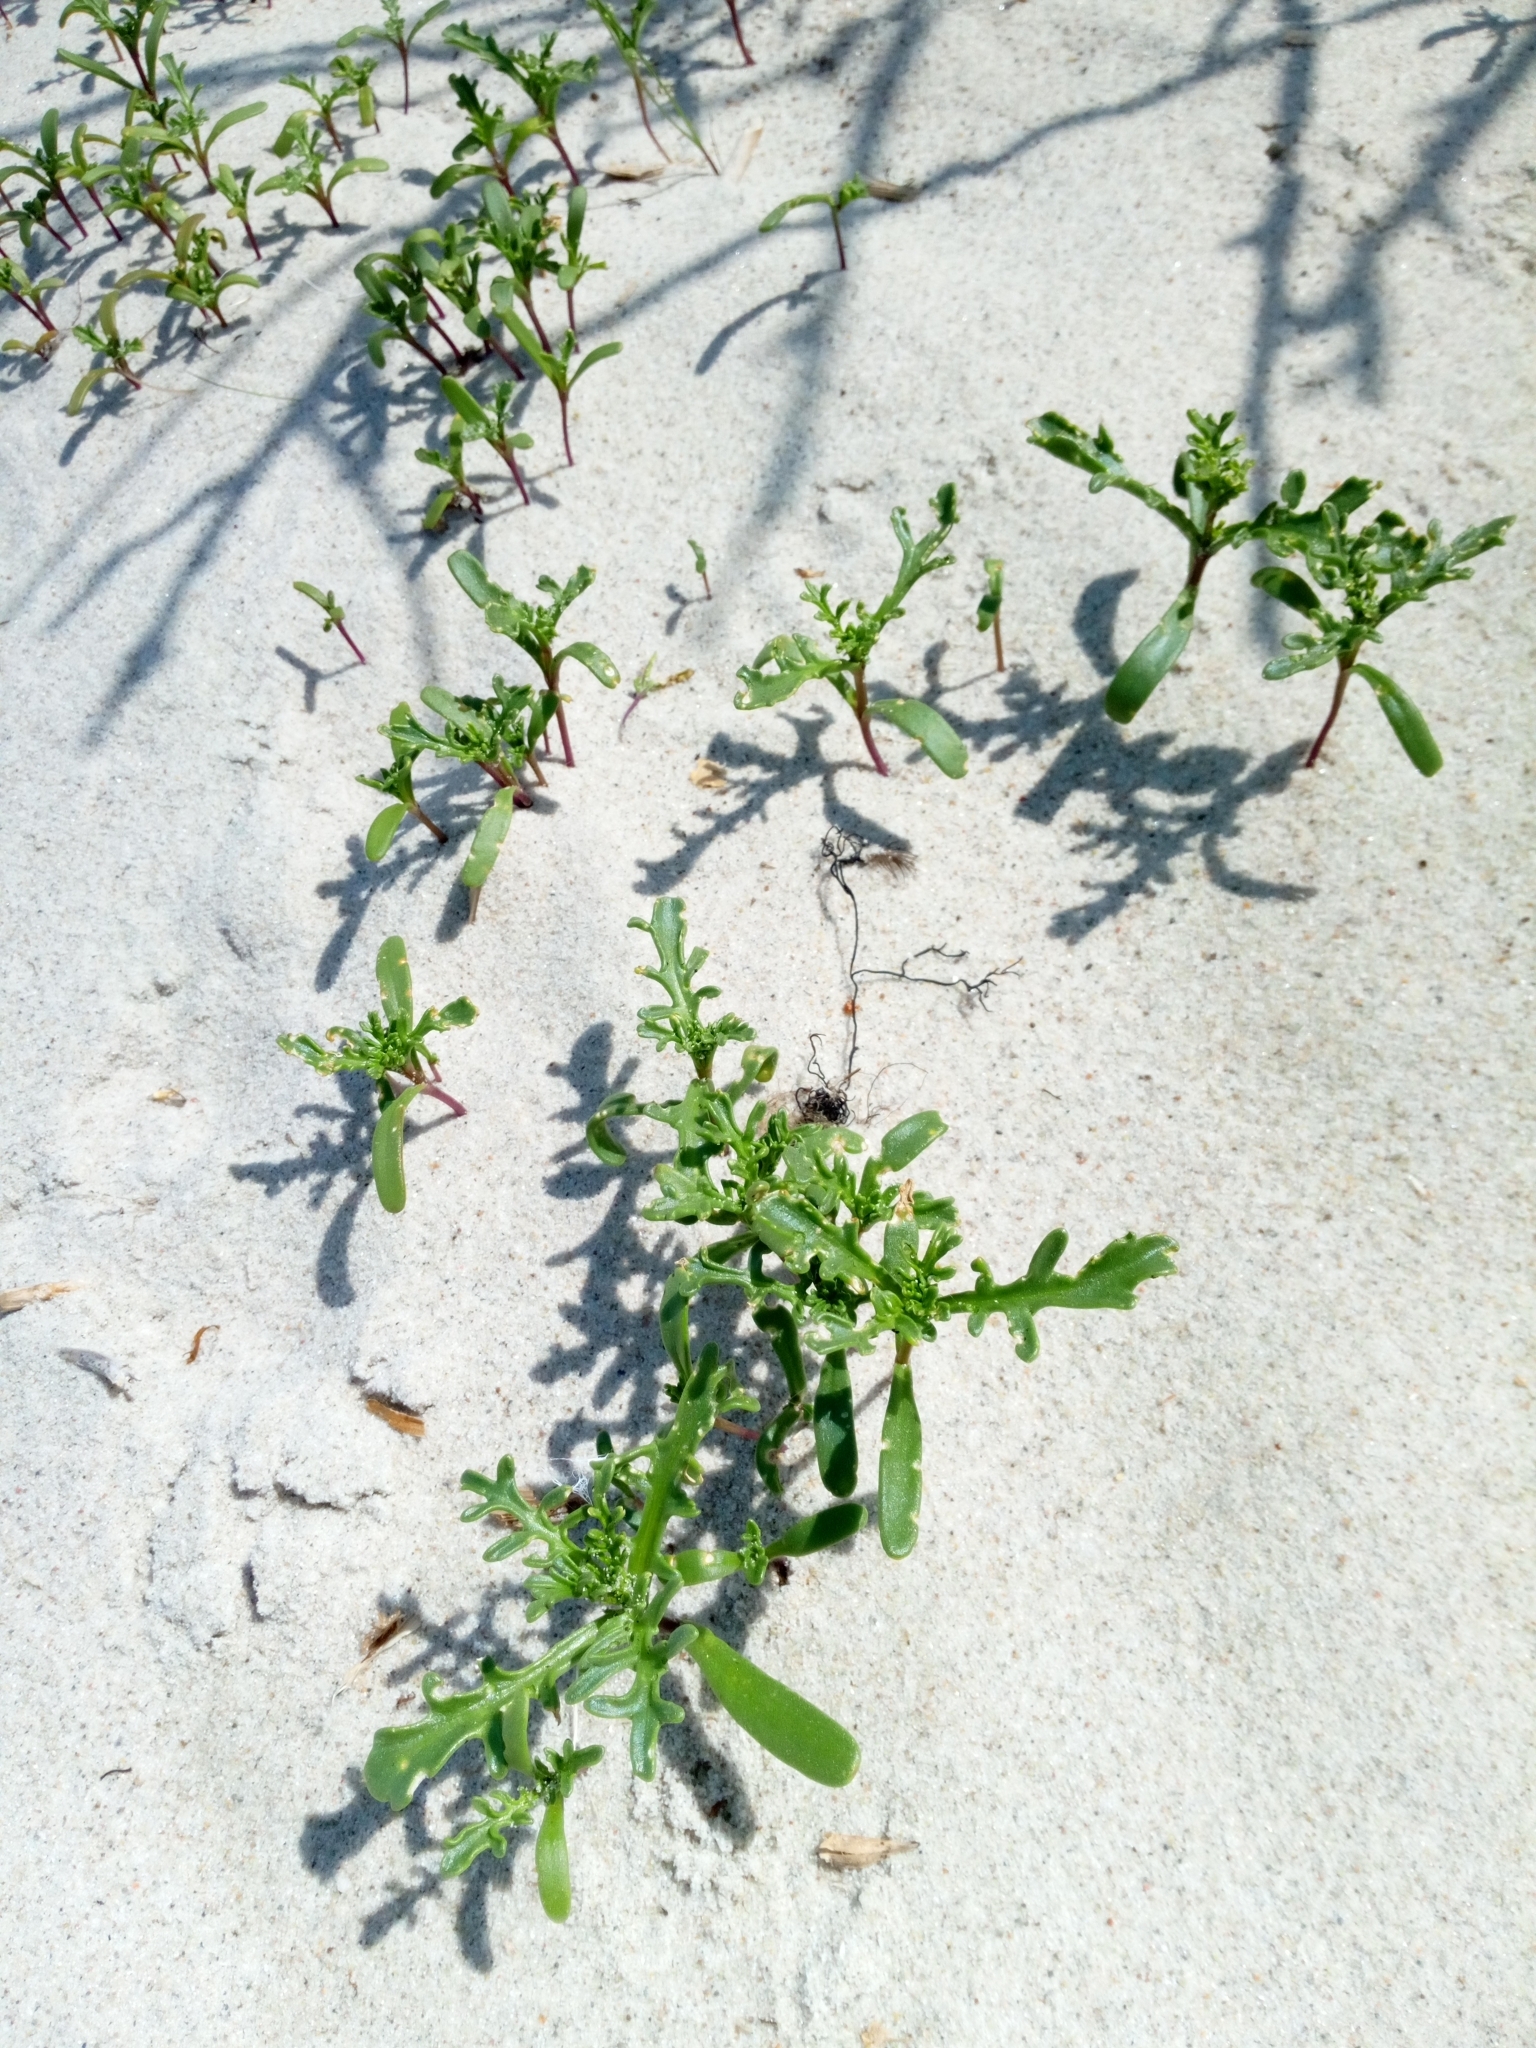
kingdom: Plantae
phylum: Tracheophyta
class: Magnoliopsida
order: Brassicales
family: Brassicaceae
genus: Cakile
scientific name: Cakile maritima
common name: Sea rocket
